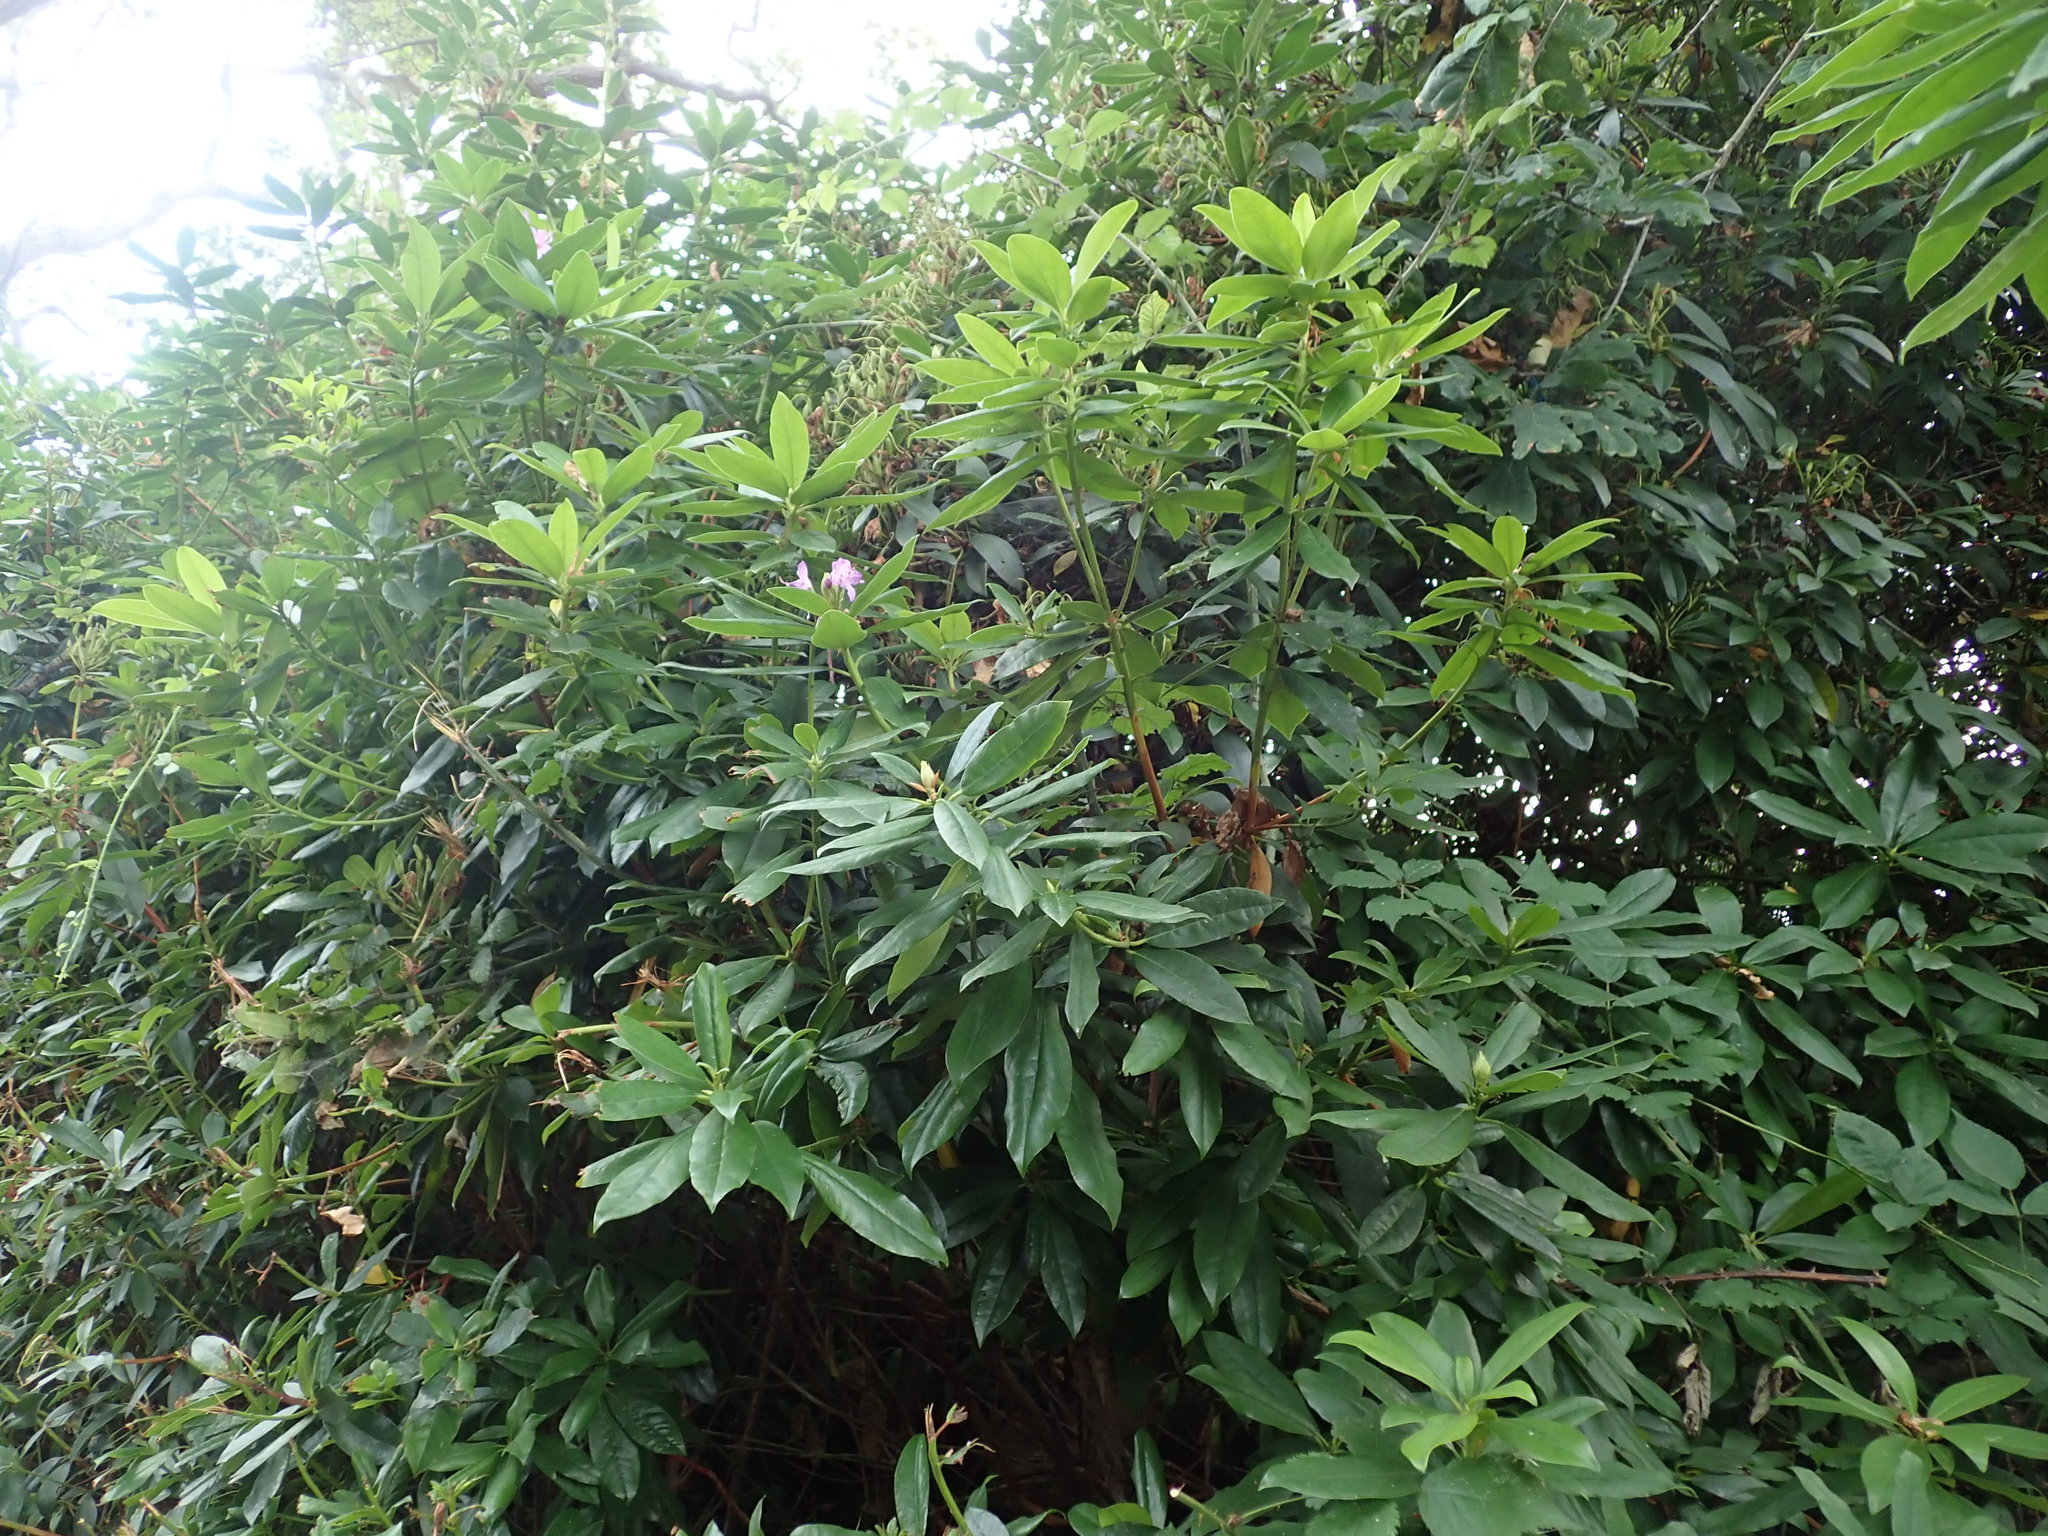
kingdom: Plantae
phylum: Tracheophyta
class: Magnoliopsida
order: Ericales
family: Ericaceae
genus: Rhododendron
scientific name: Rhododendron ponticum
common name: Rhododendron
